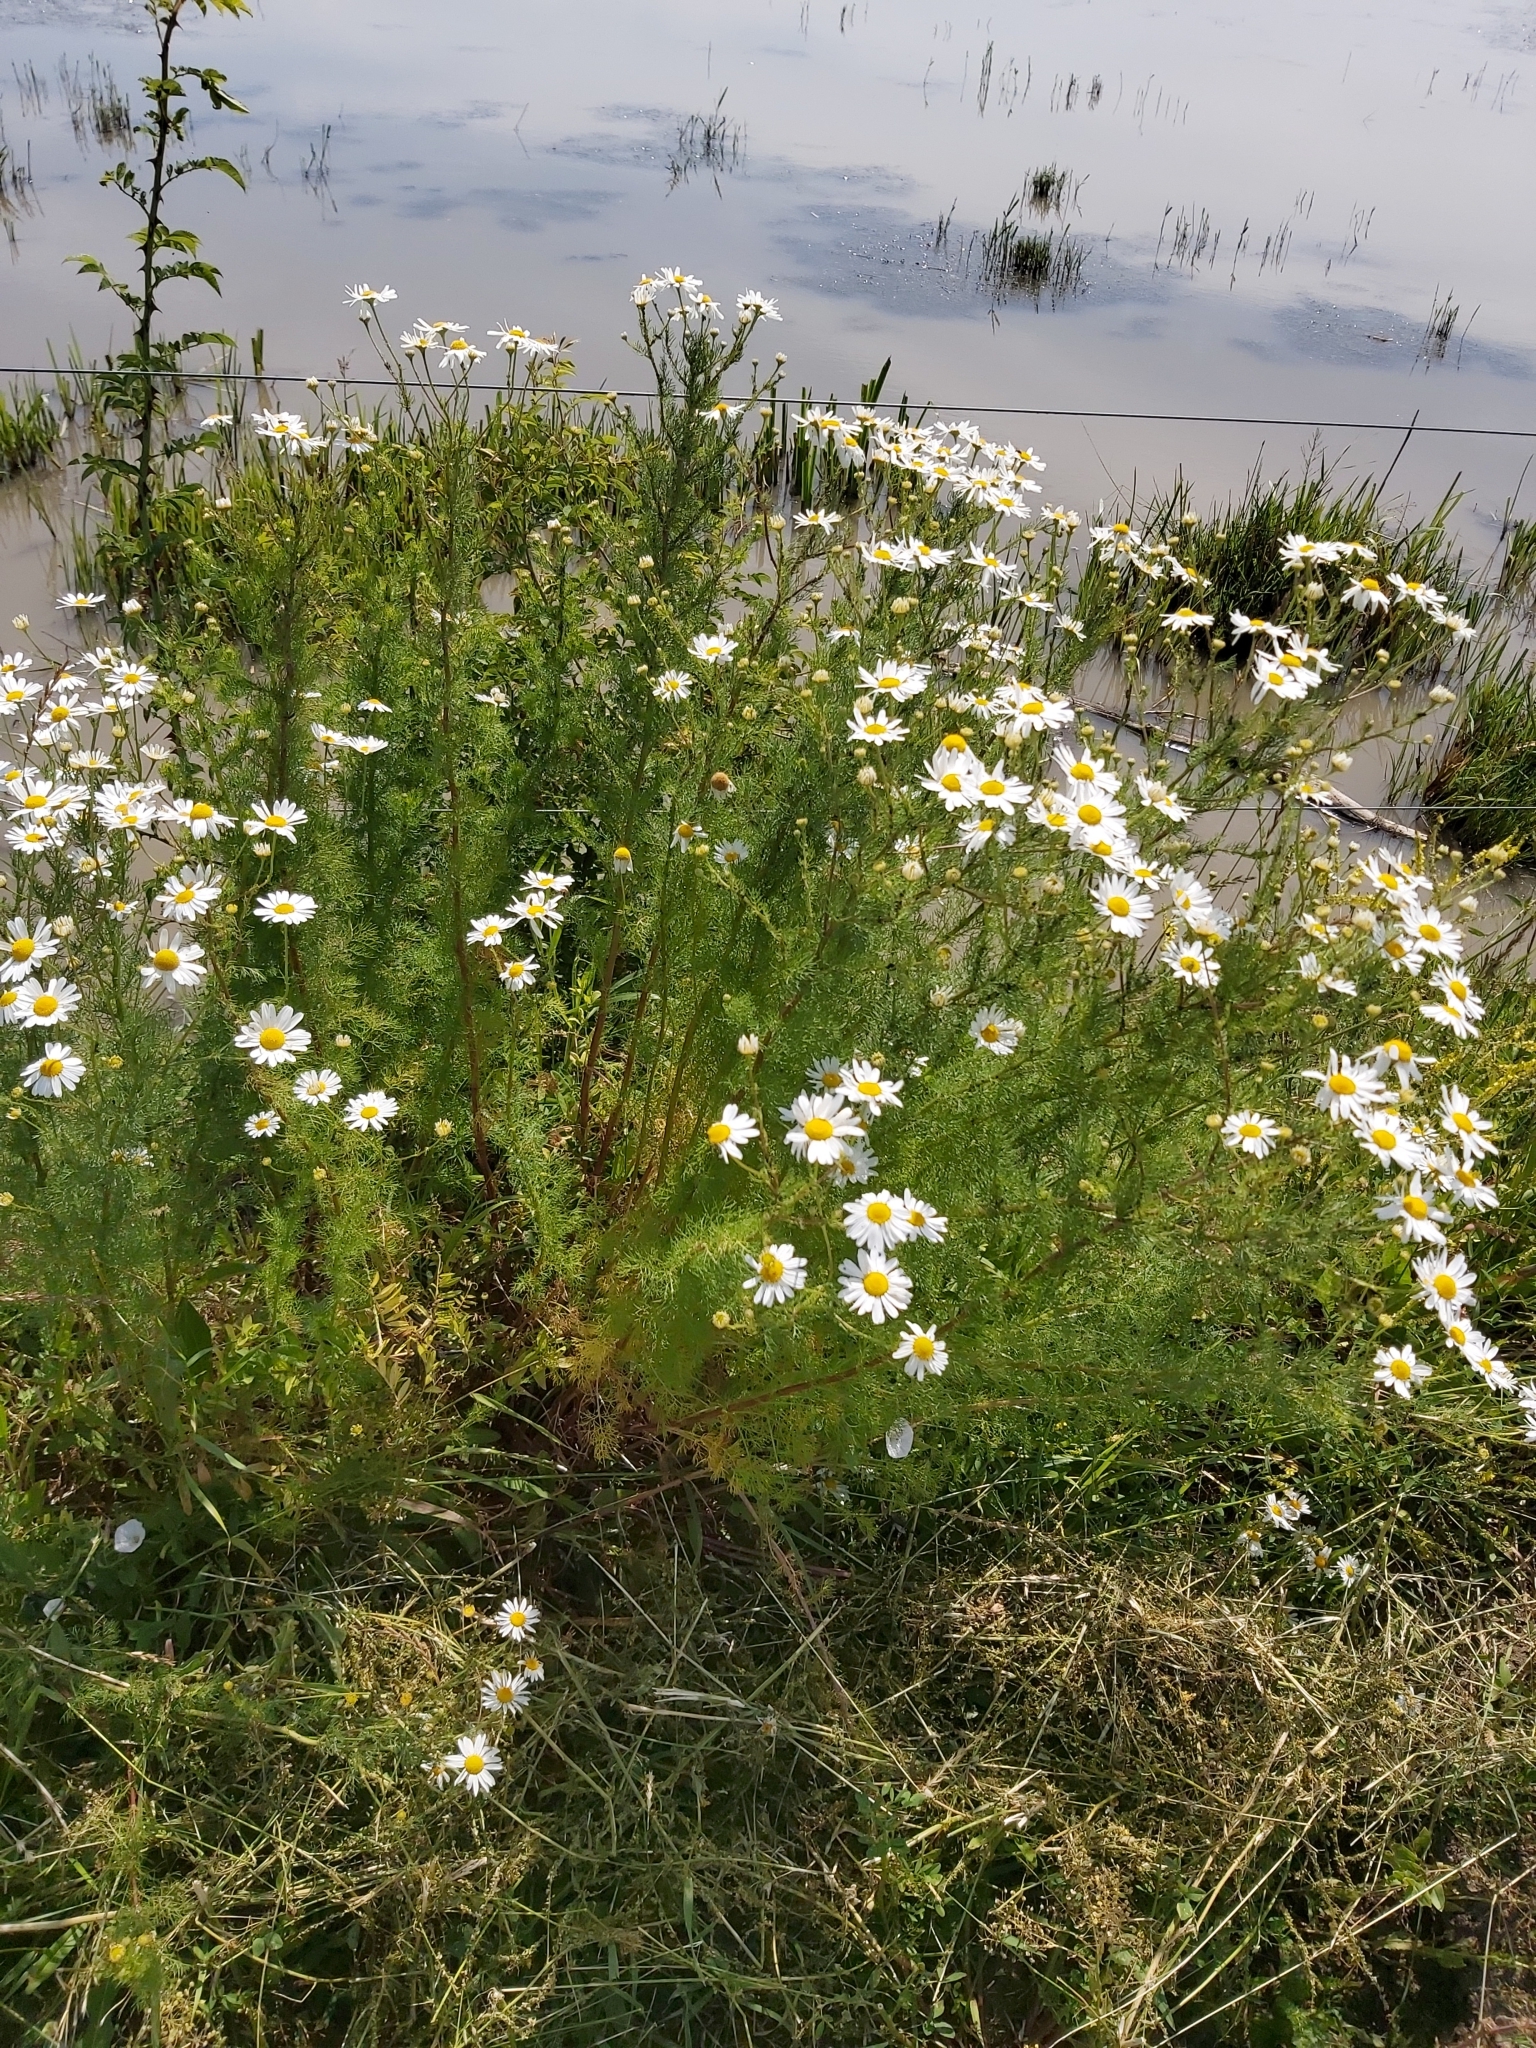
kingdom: Plantae
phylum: Tracheophyta
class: Magnoliopsida
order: Asterales
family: Asteraceae
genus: Tripleurospermum
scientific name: Tripleurospermum inodorum
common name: Scentless mayweed
